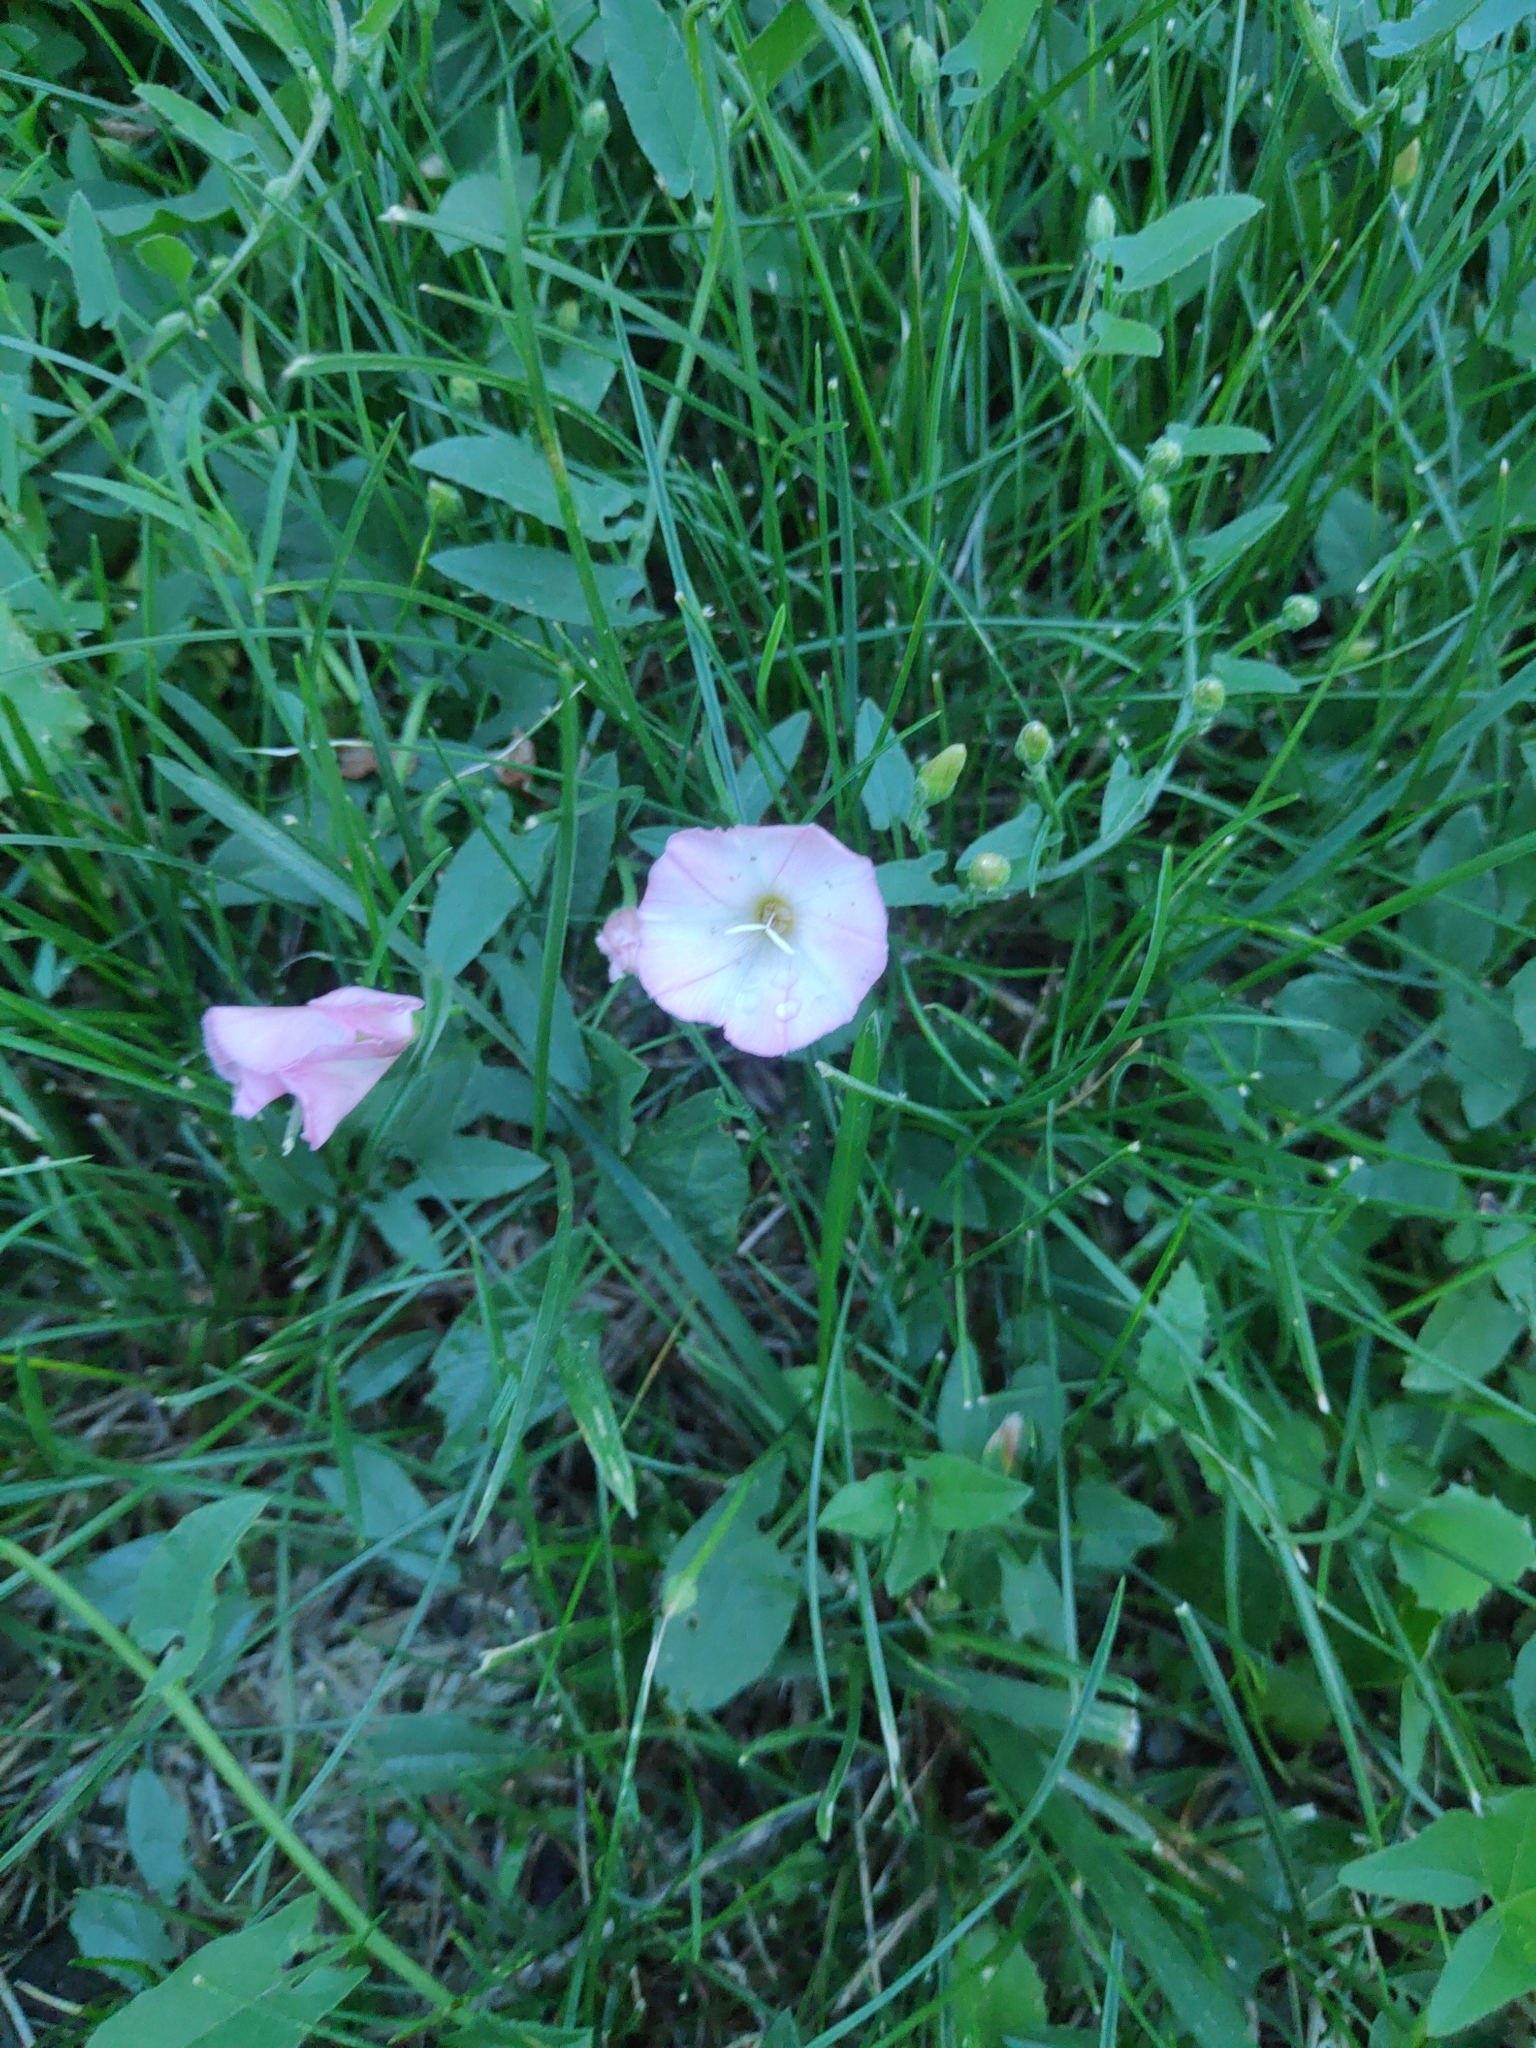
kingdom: Plantae
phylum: Tracheophyta
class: Magnoliopsida
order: Solanales
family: Convolvulaceae
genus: Convolvulus
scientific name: Convolvulus arvensis
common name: Field bindweed
